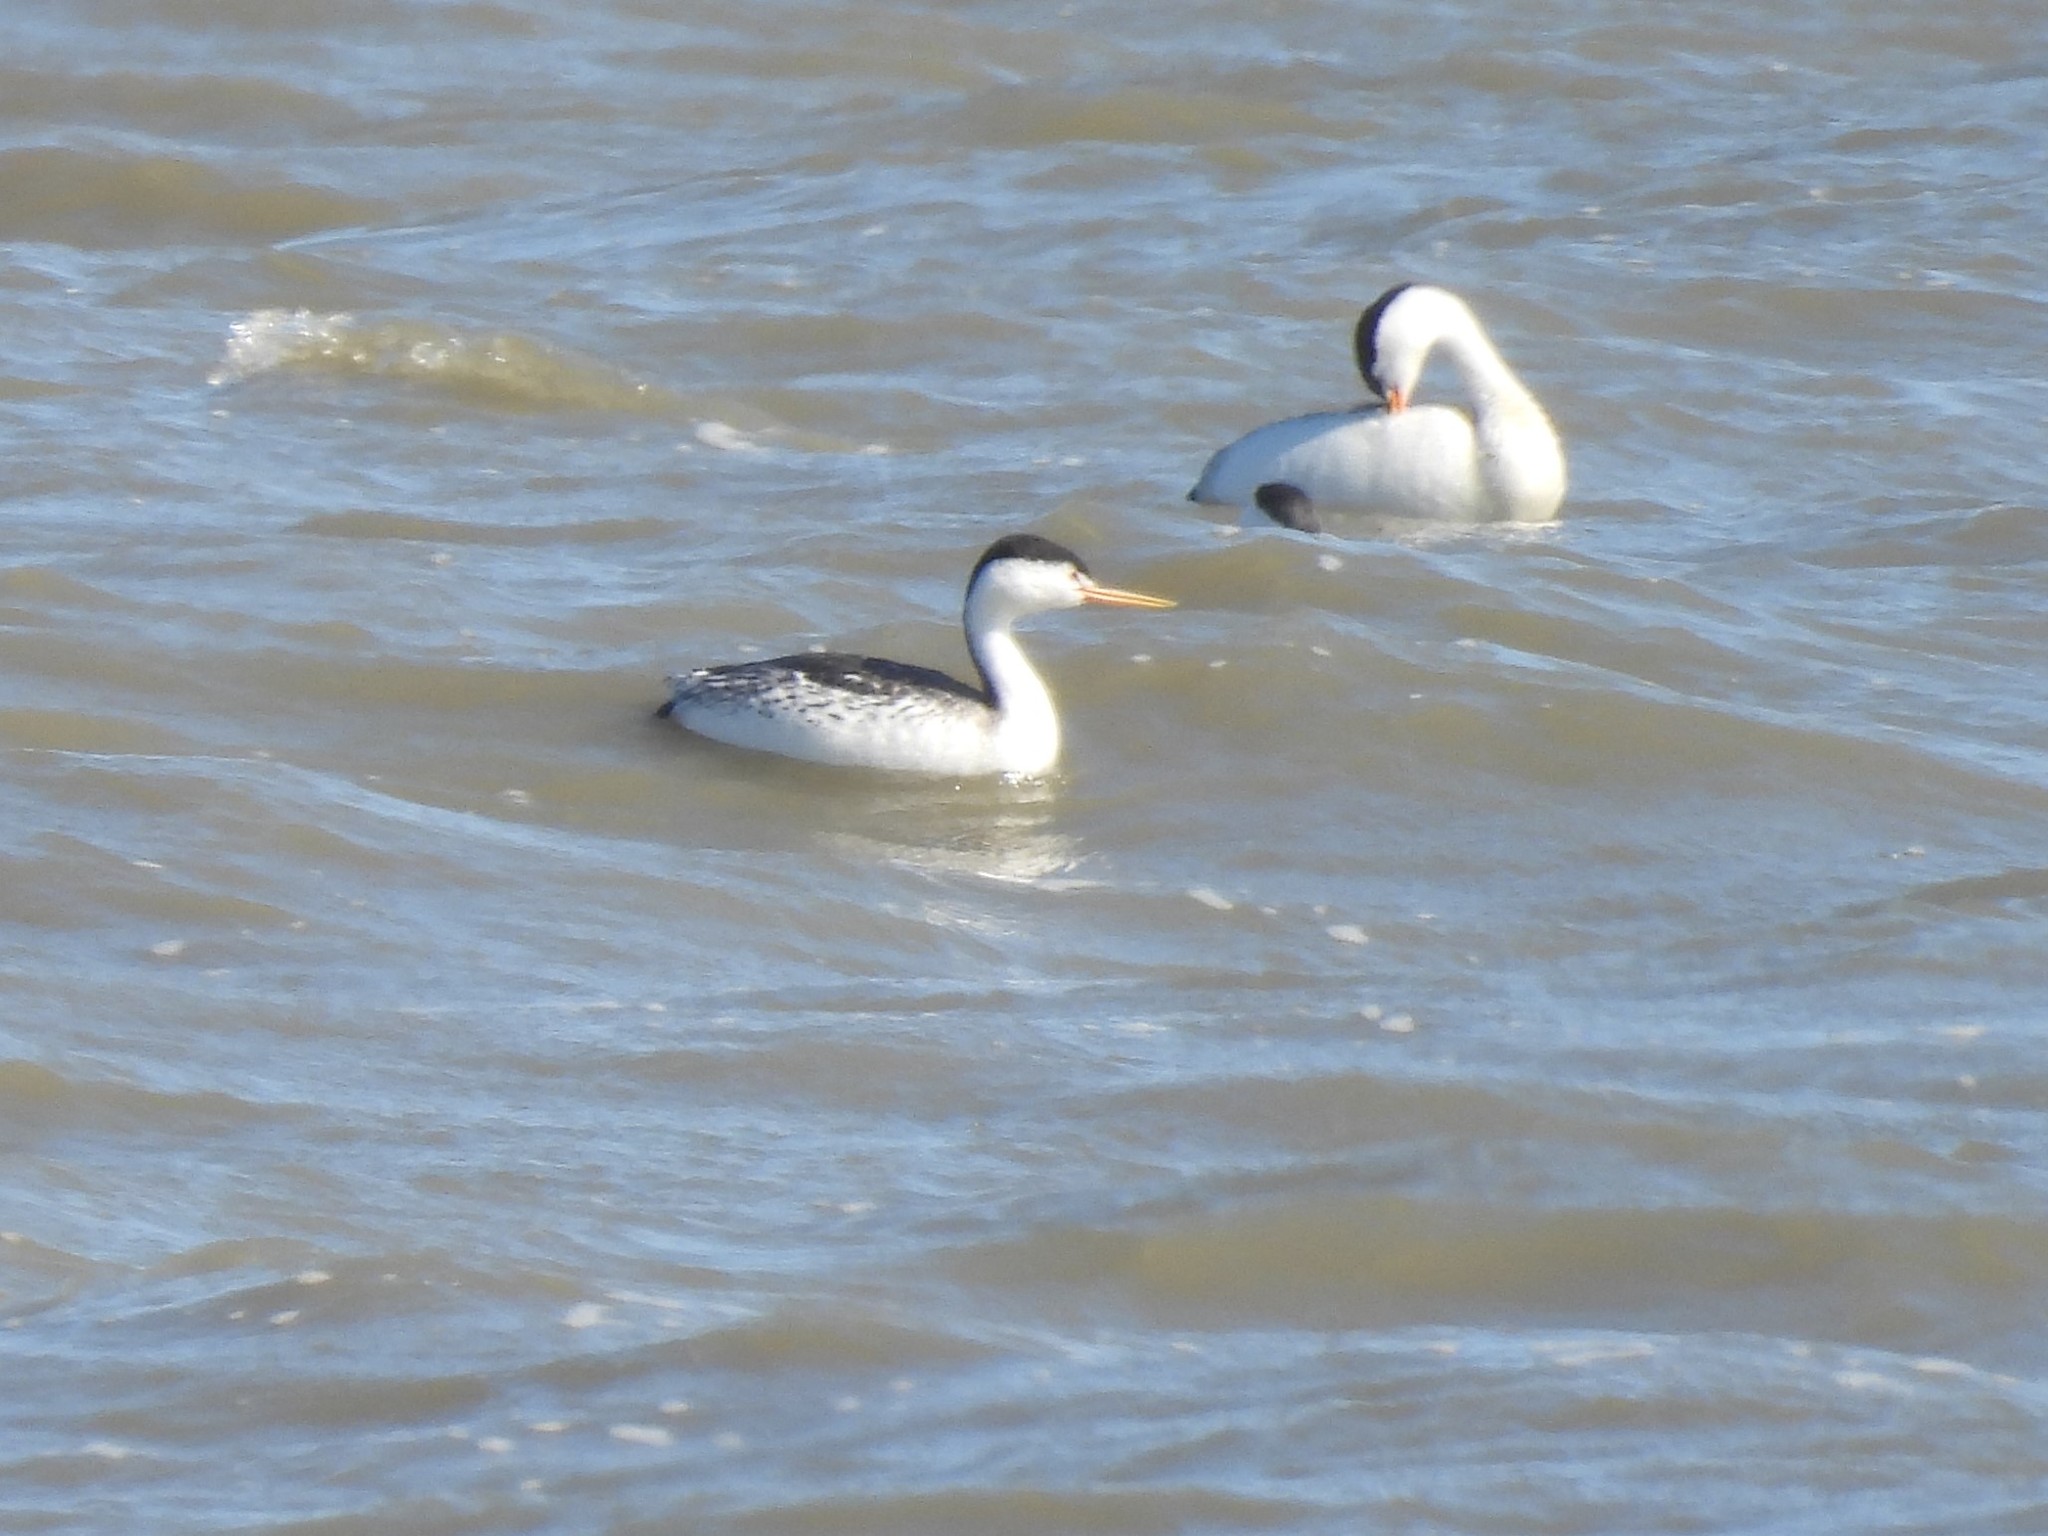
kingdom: Animalia
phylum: Chordata
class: Aves
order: Podicipediformes
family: Podicipedidae
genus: Aechmophorus
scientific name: Aechmophorus clarkii
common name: Clark's grebe
